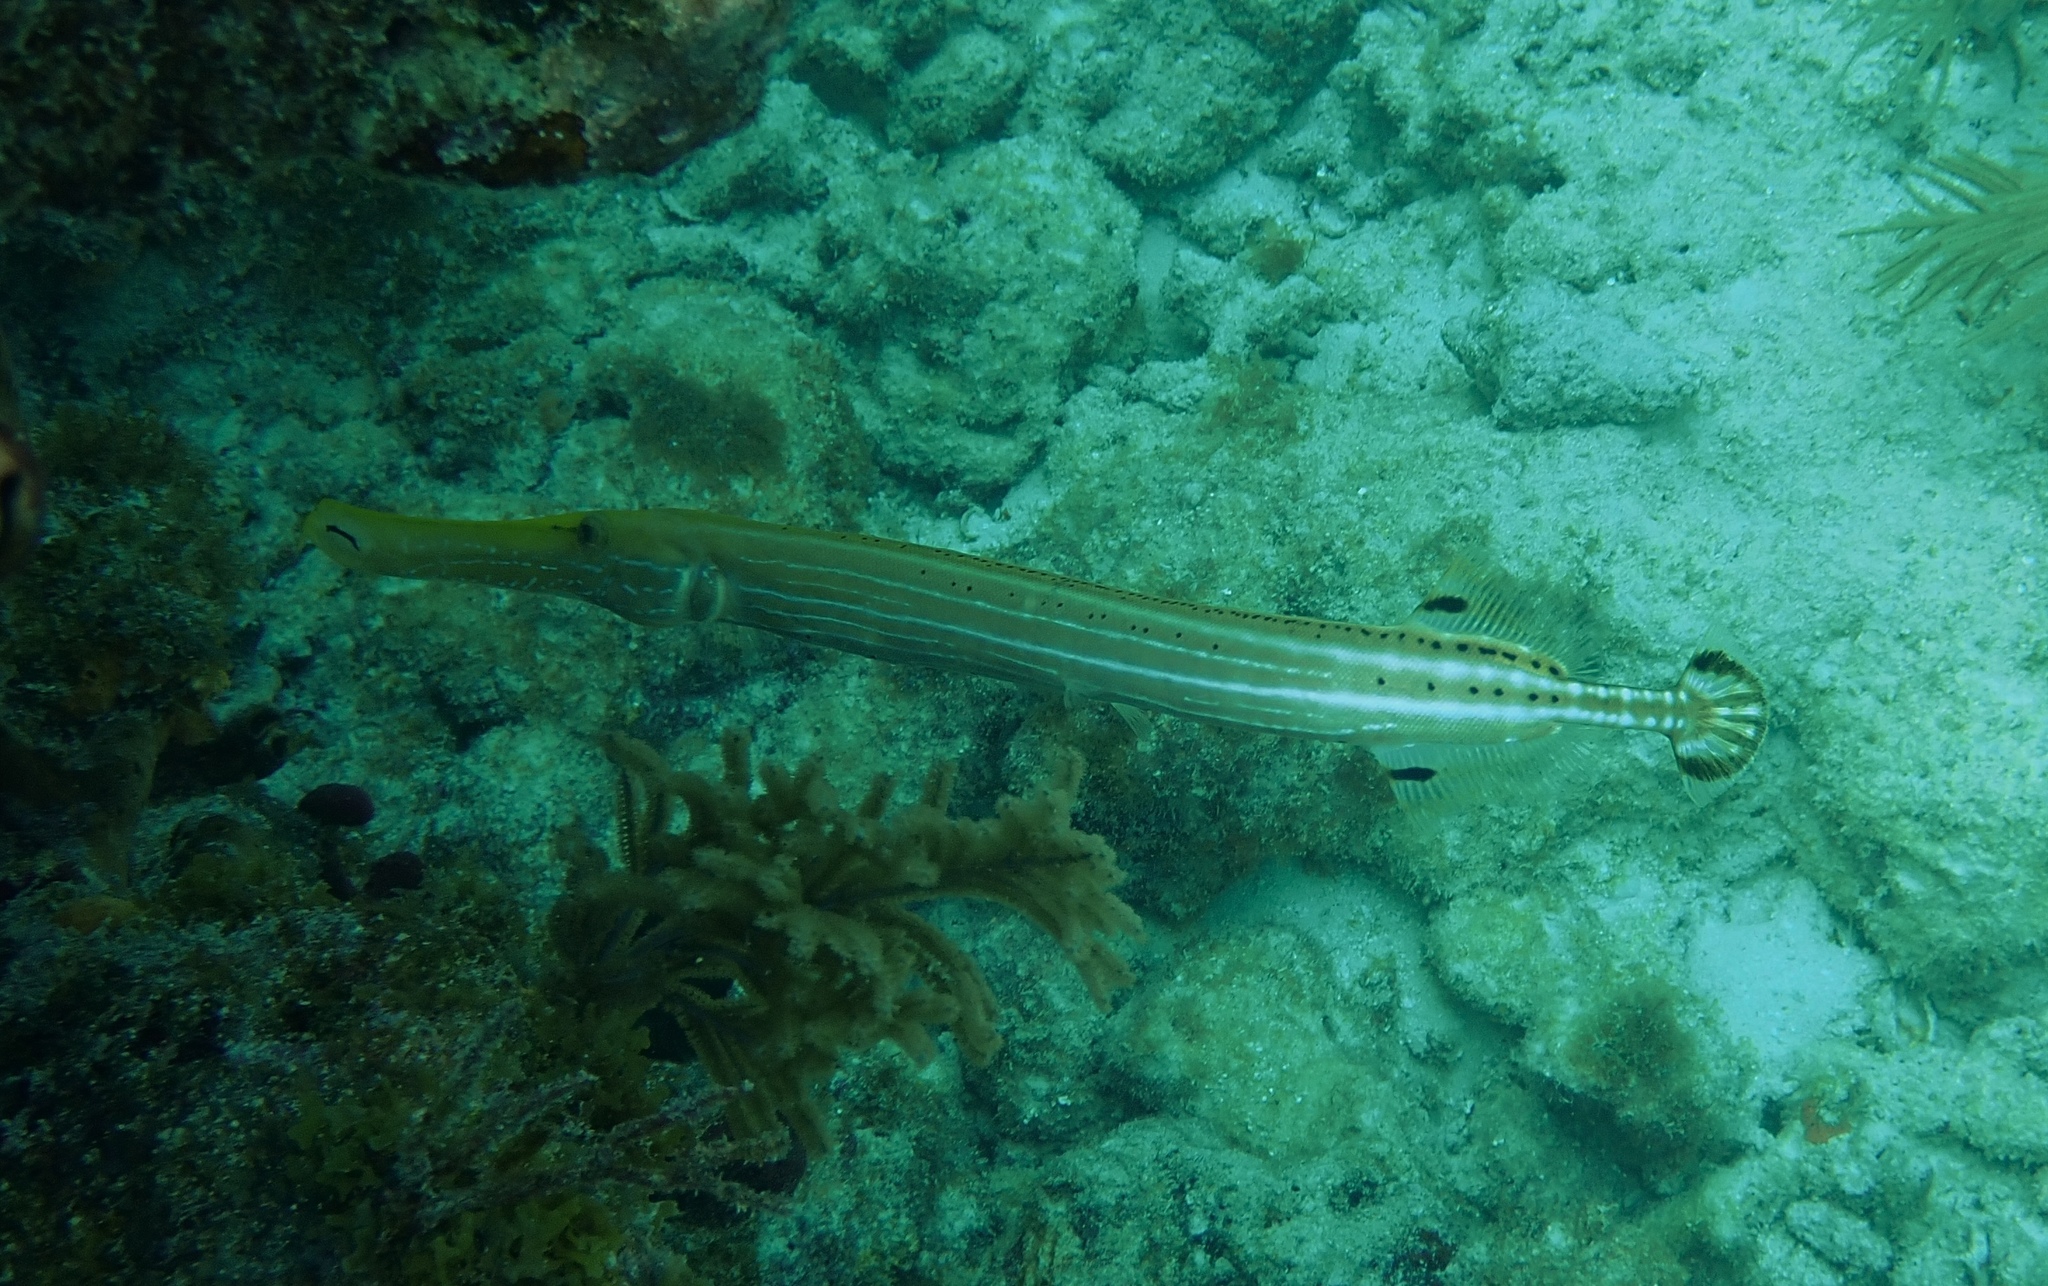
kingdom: Animalia
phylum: Chordata
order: Syngnathiformes
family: Aulostomidae
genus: Aulostomus
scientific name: Aulostomus maculatus
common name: West atlantic trumpetfish
